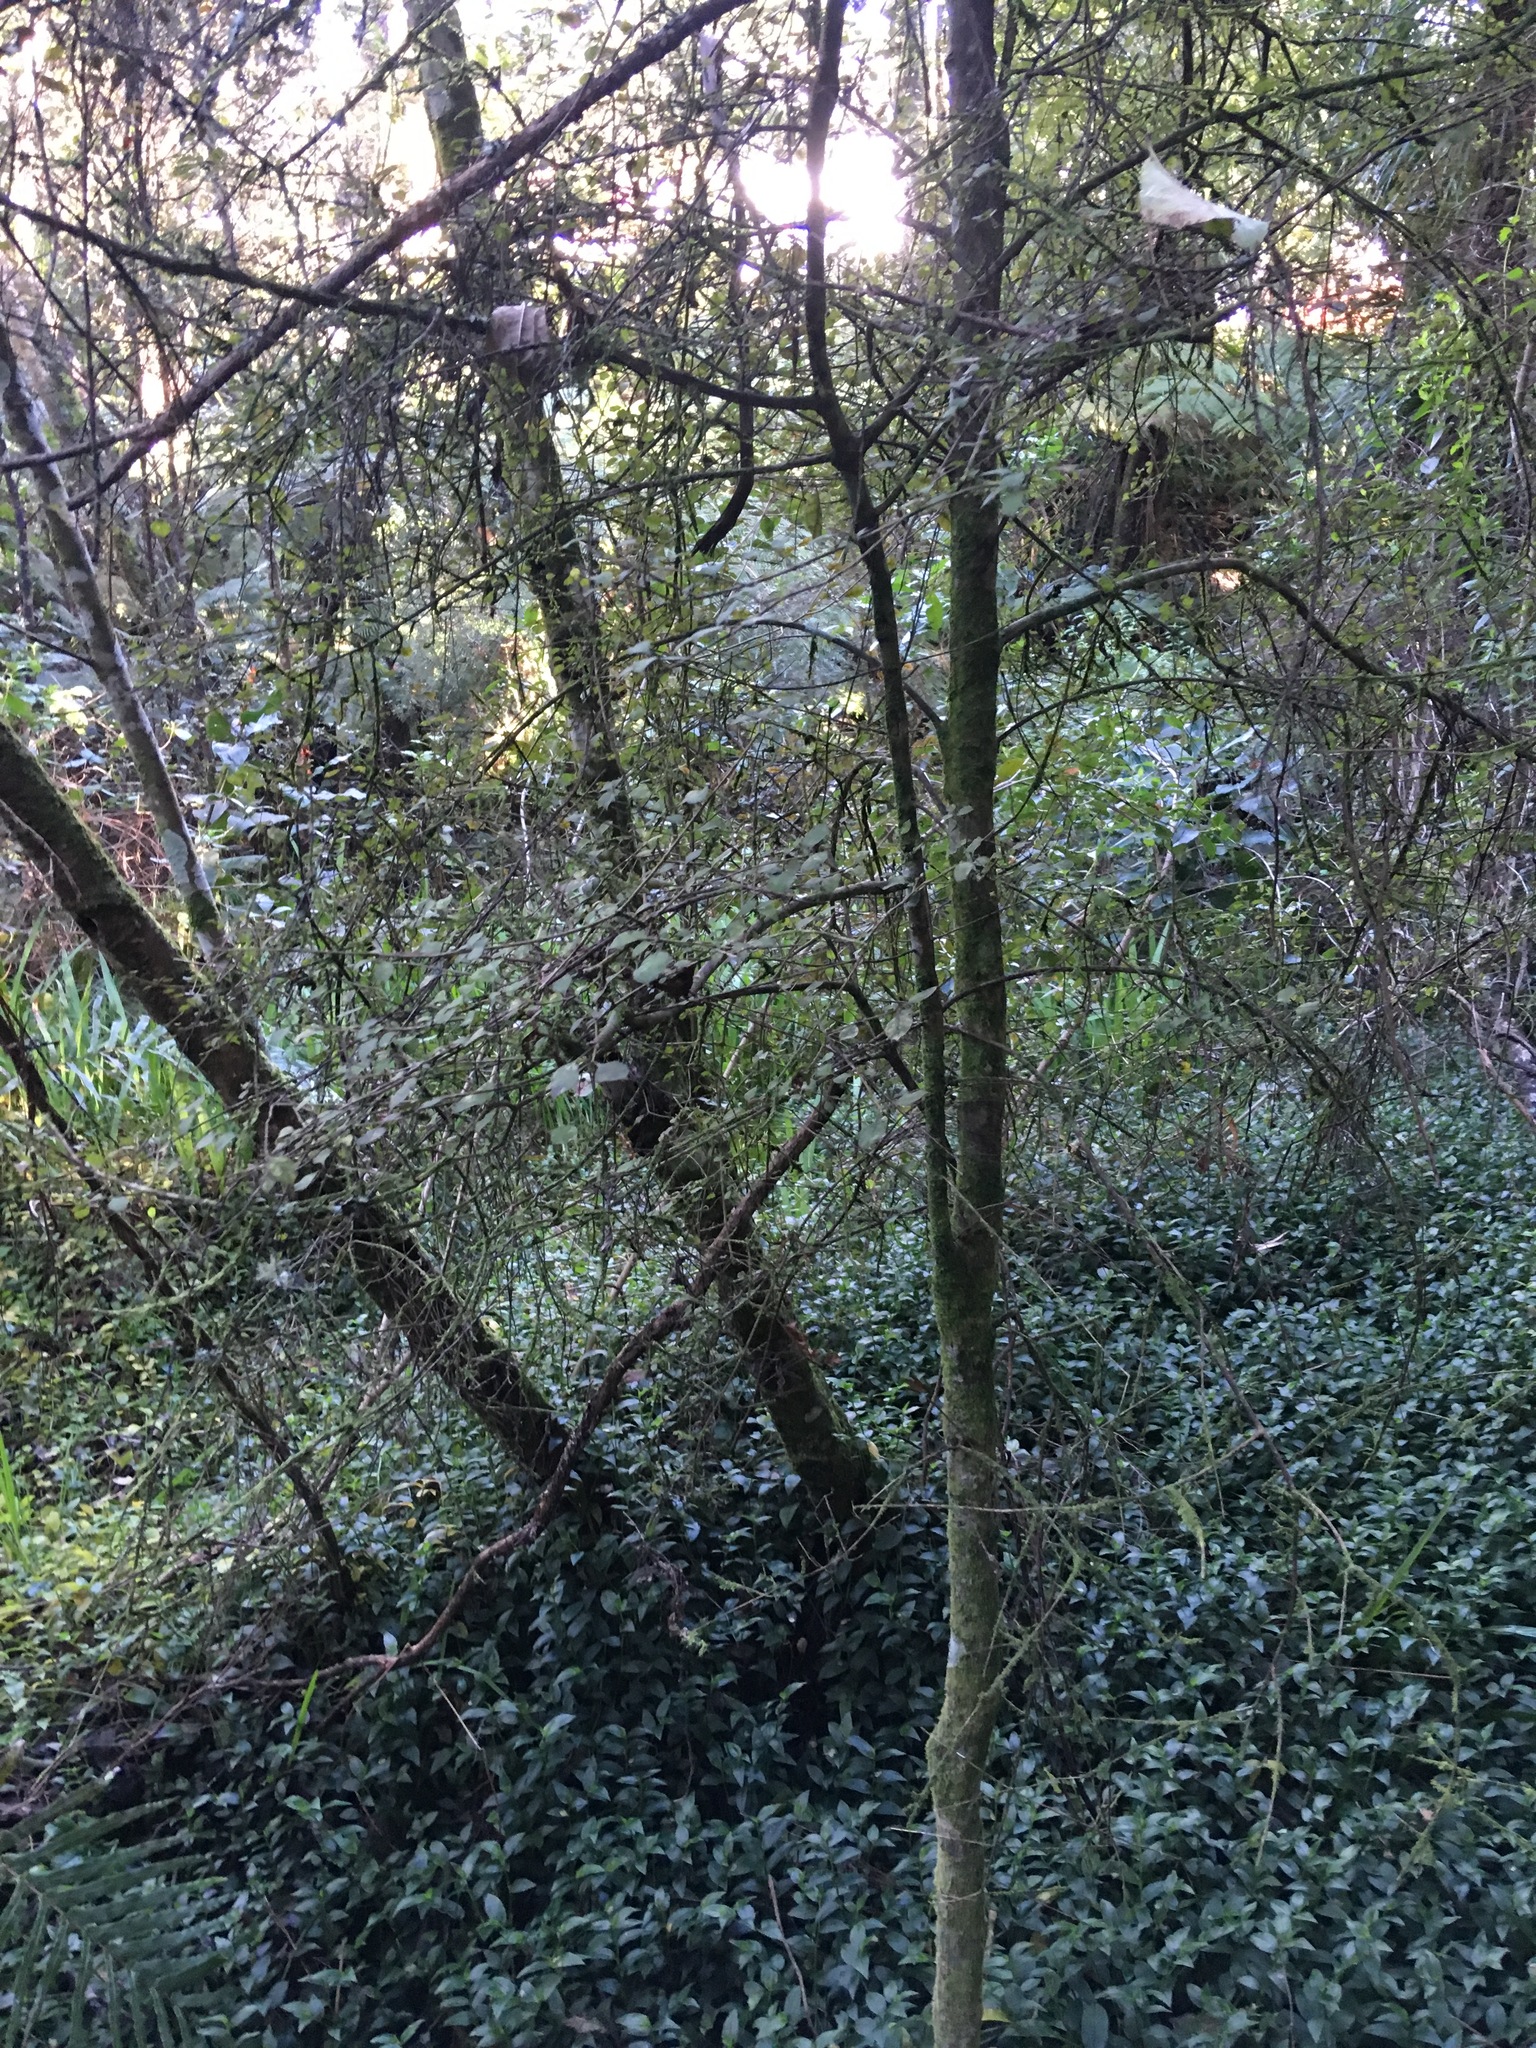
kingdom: Plantae
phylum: Tracheophyta
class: Magnoliopsida
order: Gentianales
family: Rubiaceae
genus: Coprosma
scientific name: Coprosma areolata
